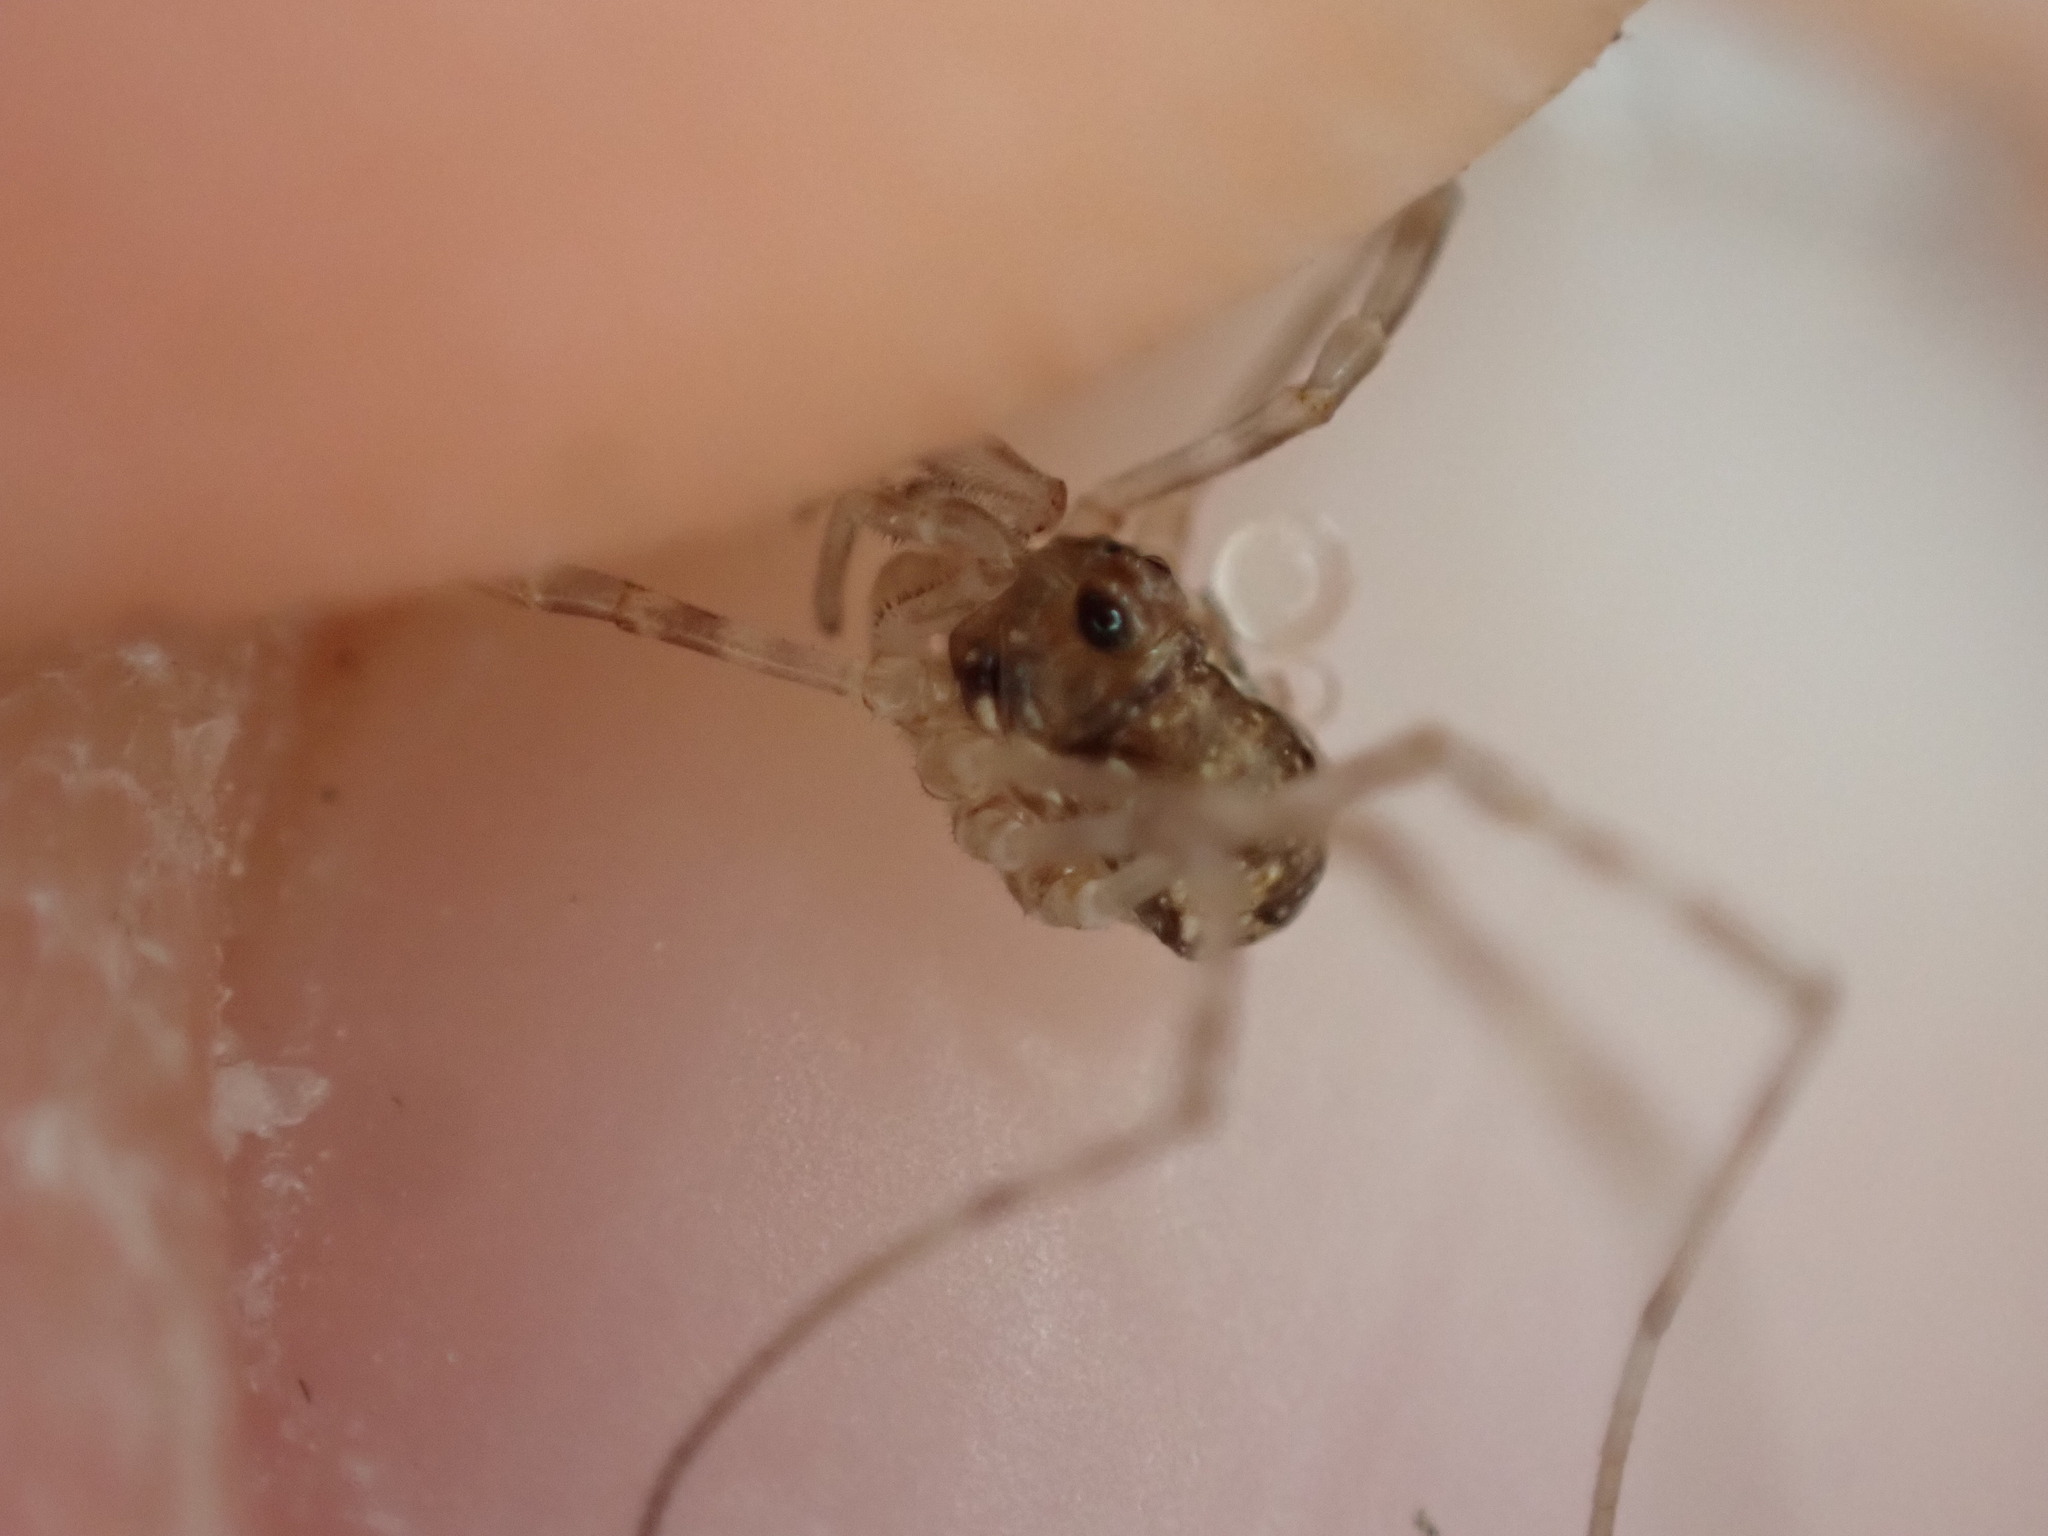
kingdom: Animalia
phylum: Arthropoda
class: Arachnida
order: Opiliones
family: Phalangiidae
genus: Dasylobus
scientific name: Dasylobus graniferus
